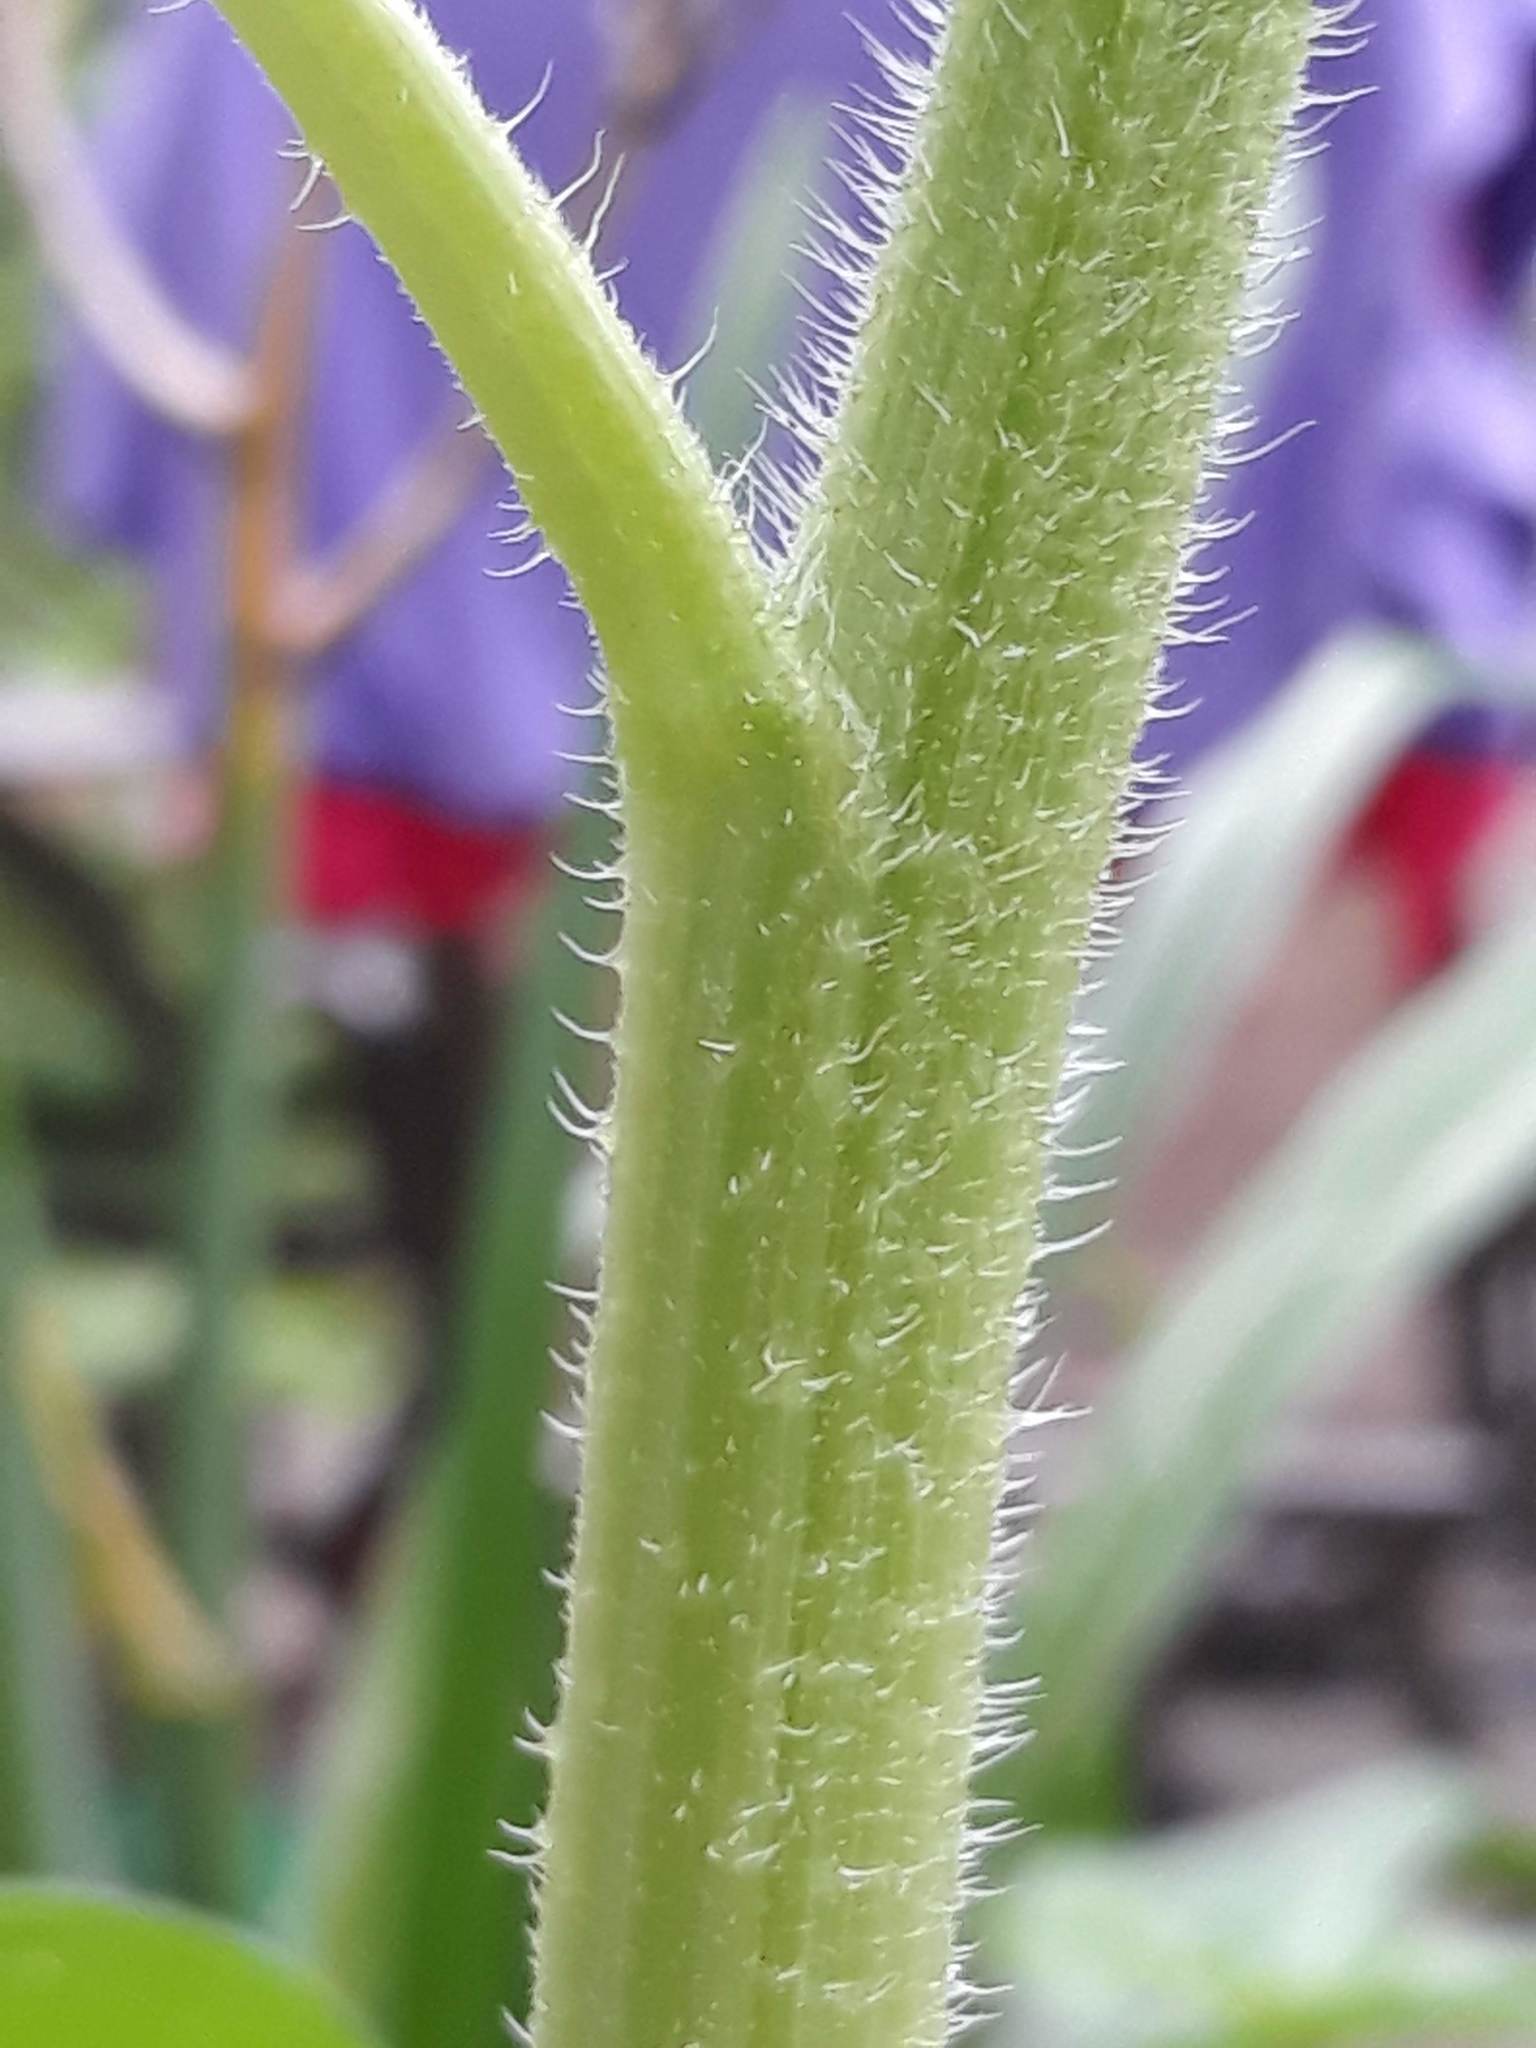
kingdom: Plantae
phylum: Tracheophyta
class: Magnoliopsida
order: Asterales
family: Asteraceae
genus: Helianthus
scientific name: Helianthus annuus
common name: Sunflower
